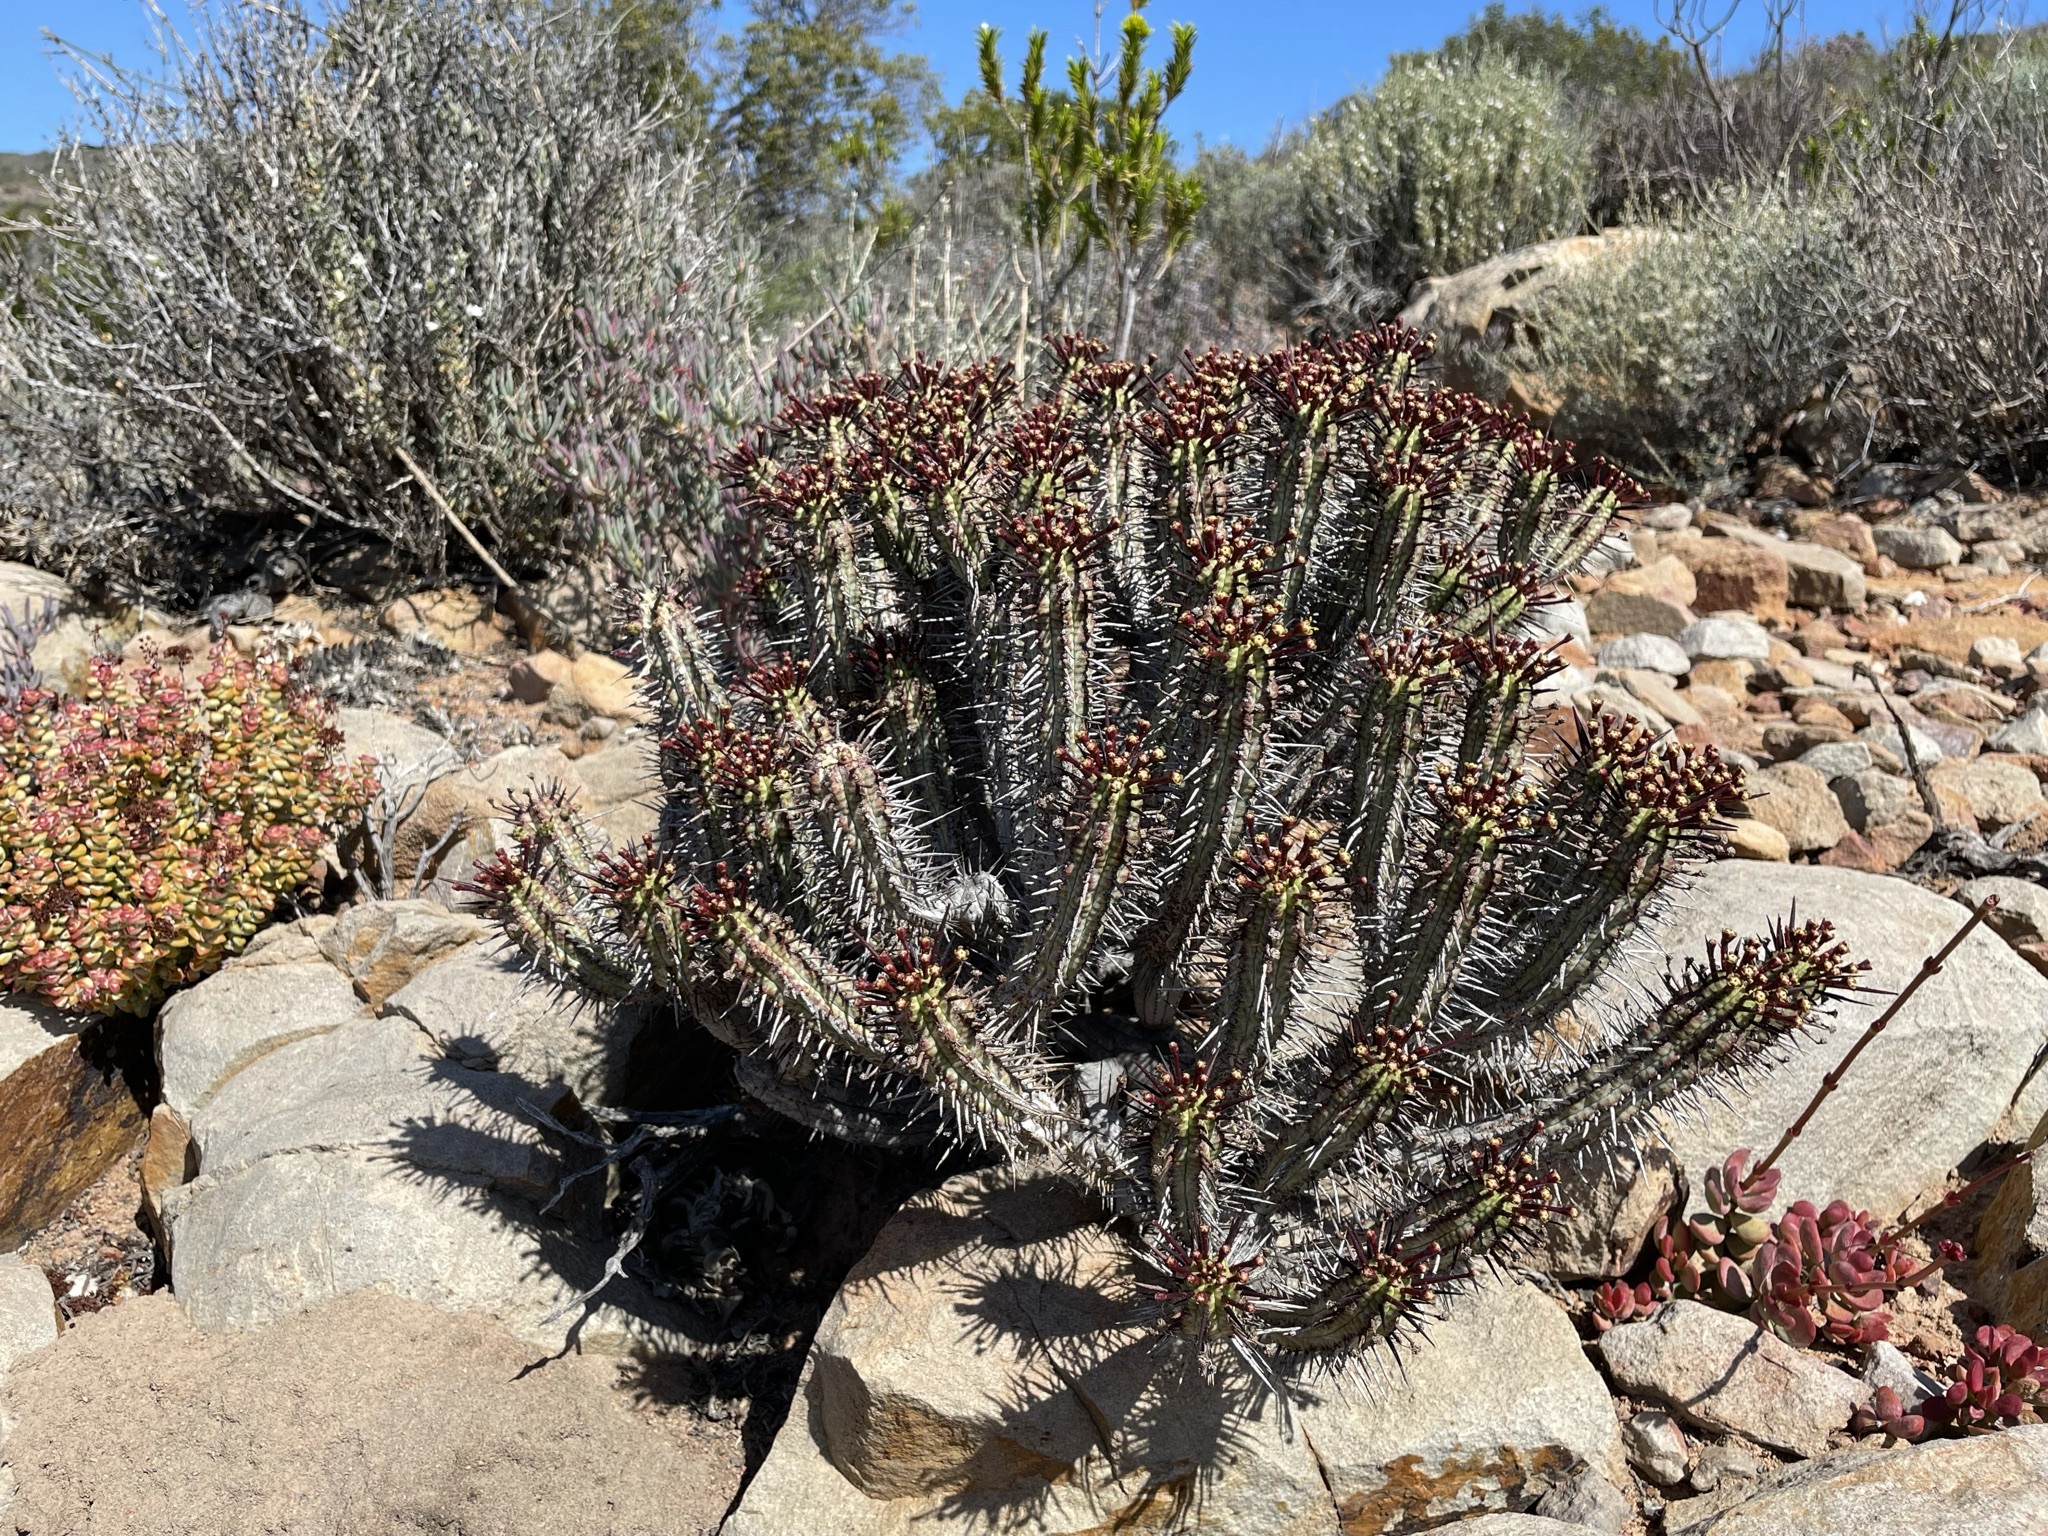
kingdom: Plantae
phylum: Tracheophyta
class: Magnoliopsida
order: Malpighiales
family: Euphorbiaceae
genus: Euphorbia
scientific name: Euphorbia heptagona
